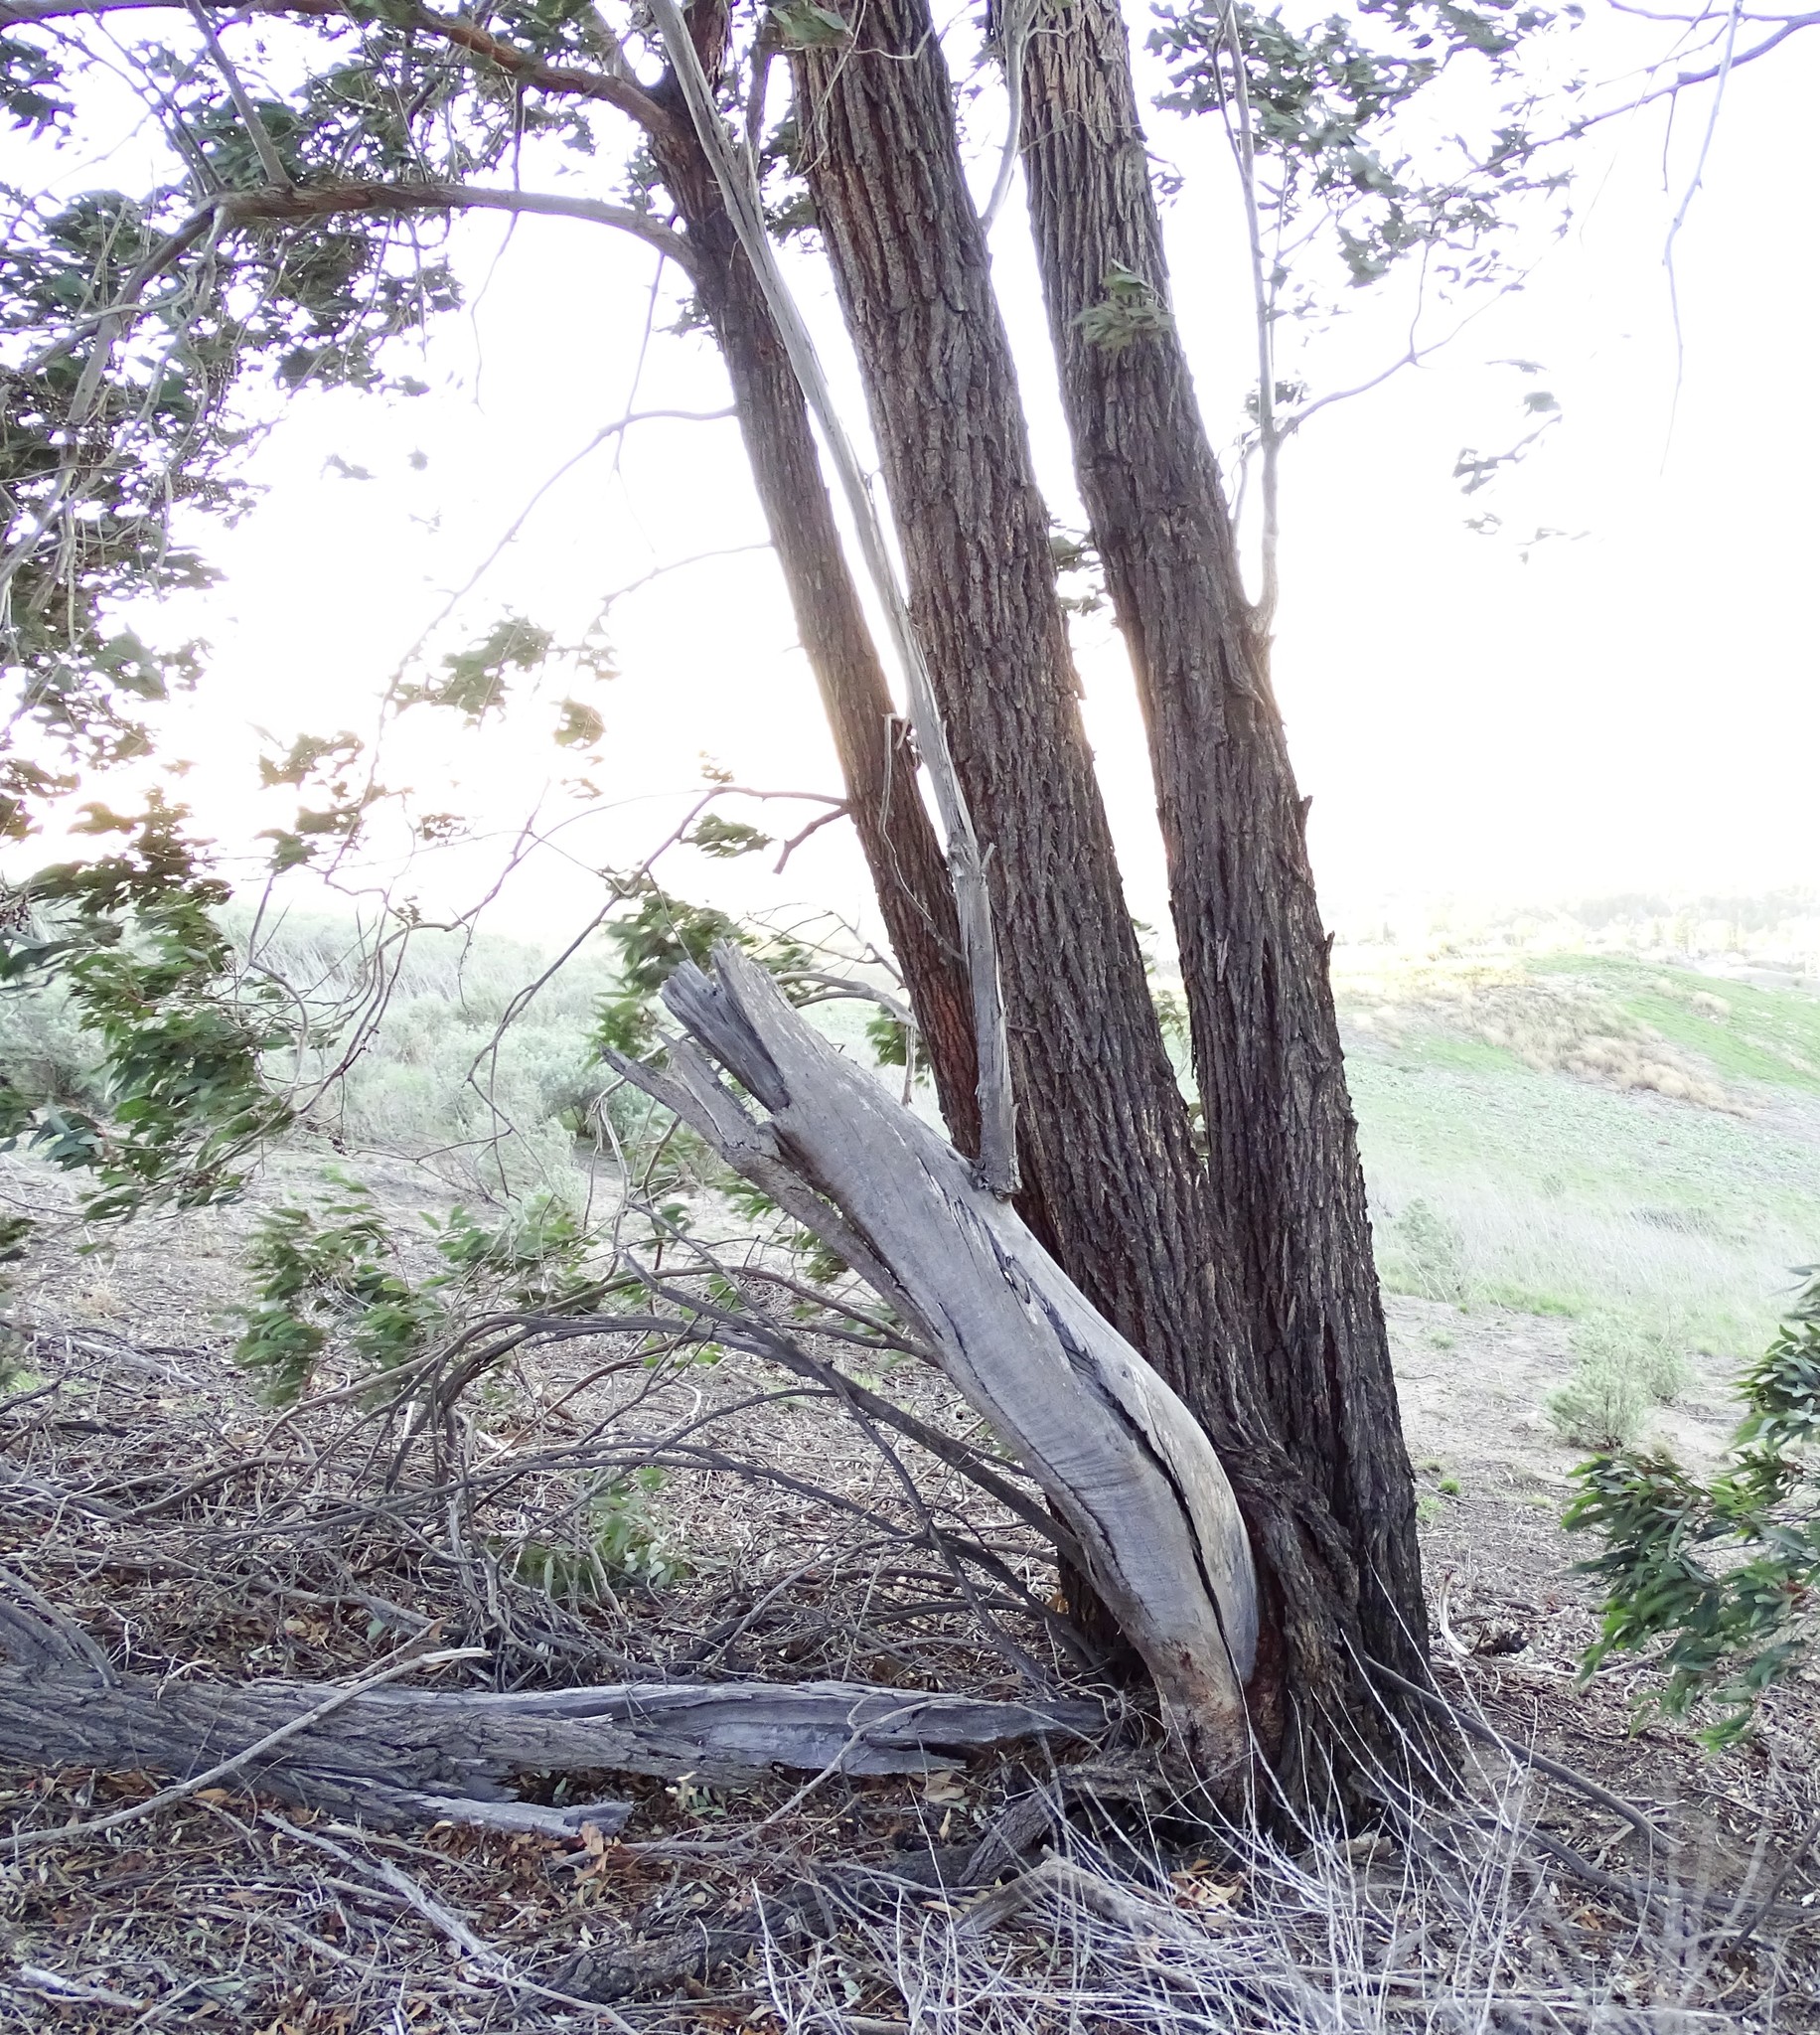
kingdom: Plantae
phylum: Tracheophyta
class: Magnoliopsida
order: Myrtales
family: Myrtaceae
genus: Eucalyptus
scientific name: Eucalyptus sideroxylon
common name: Red ironbark
